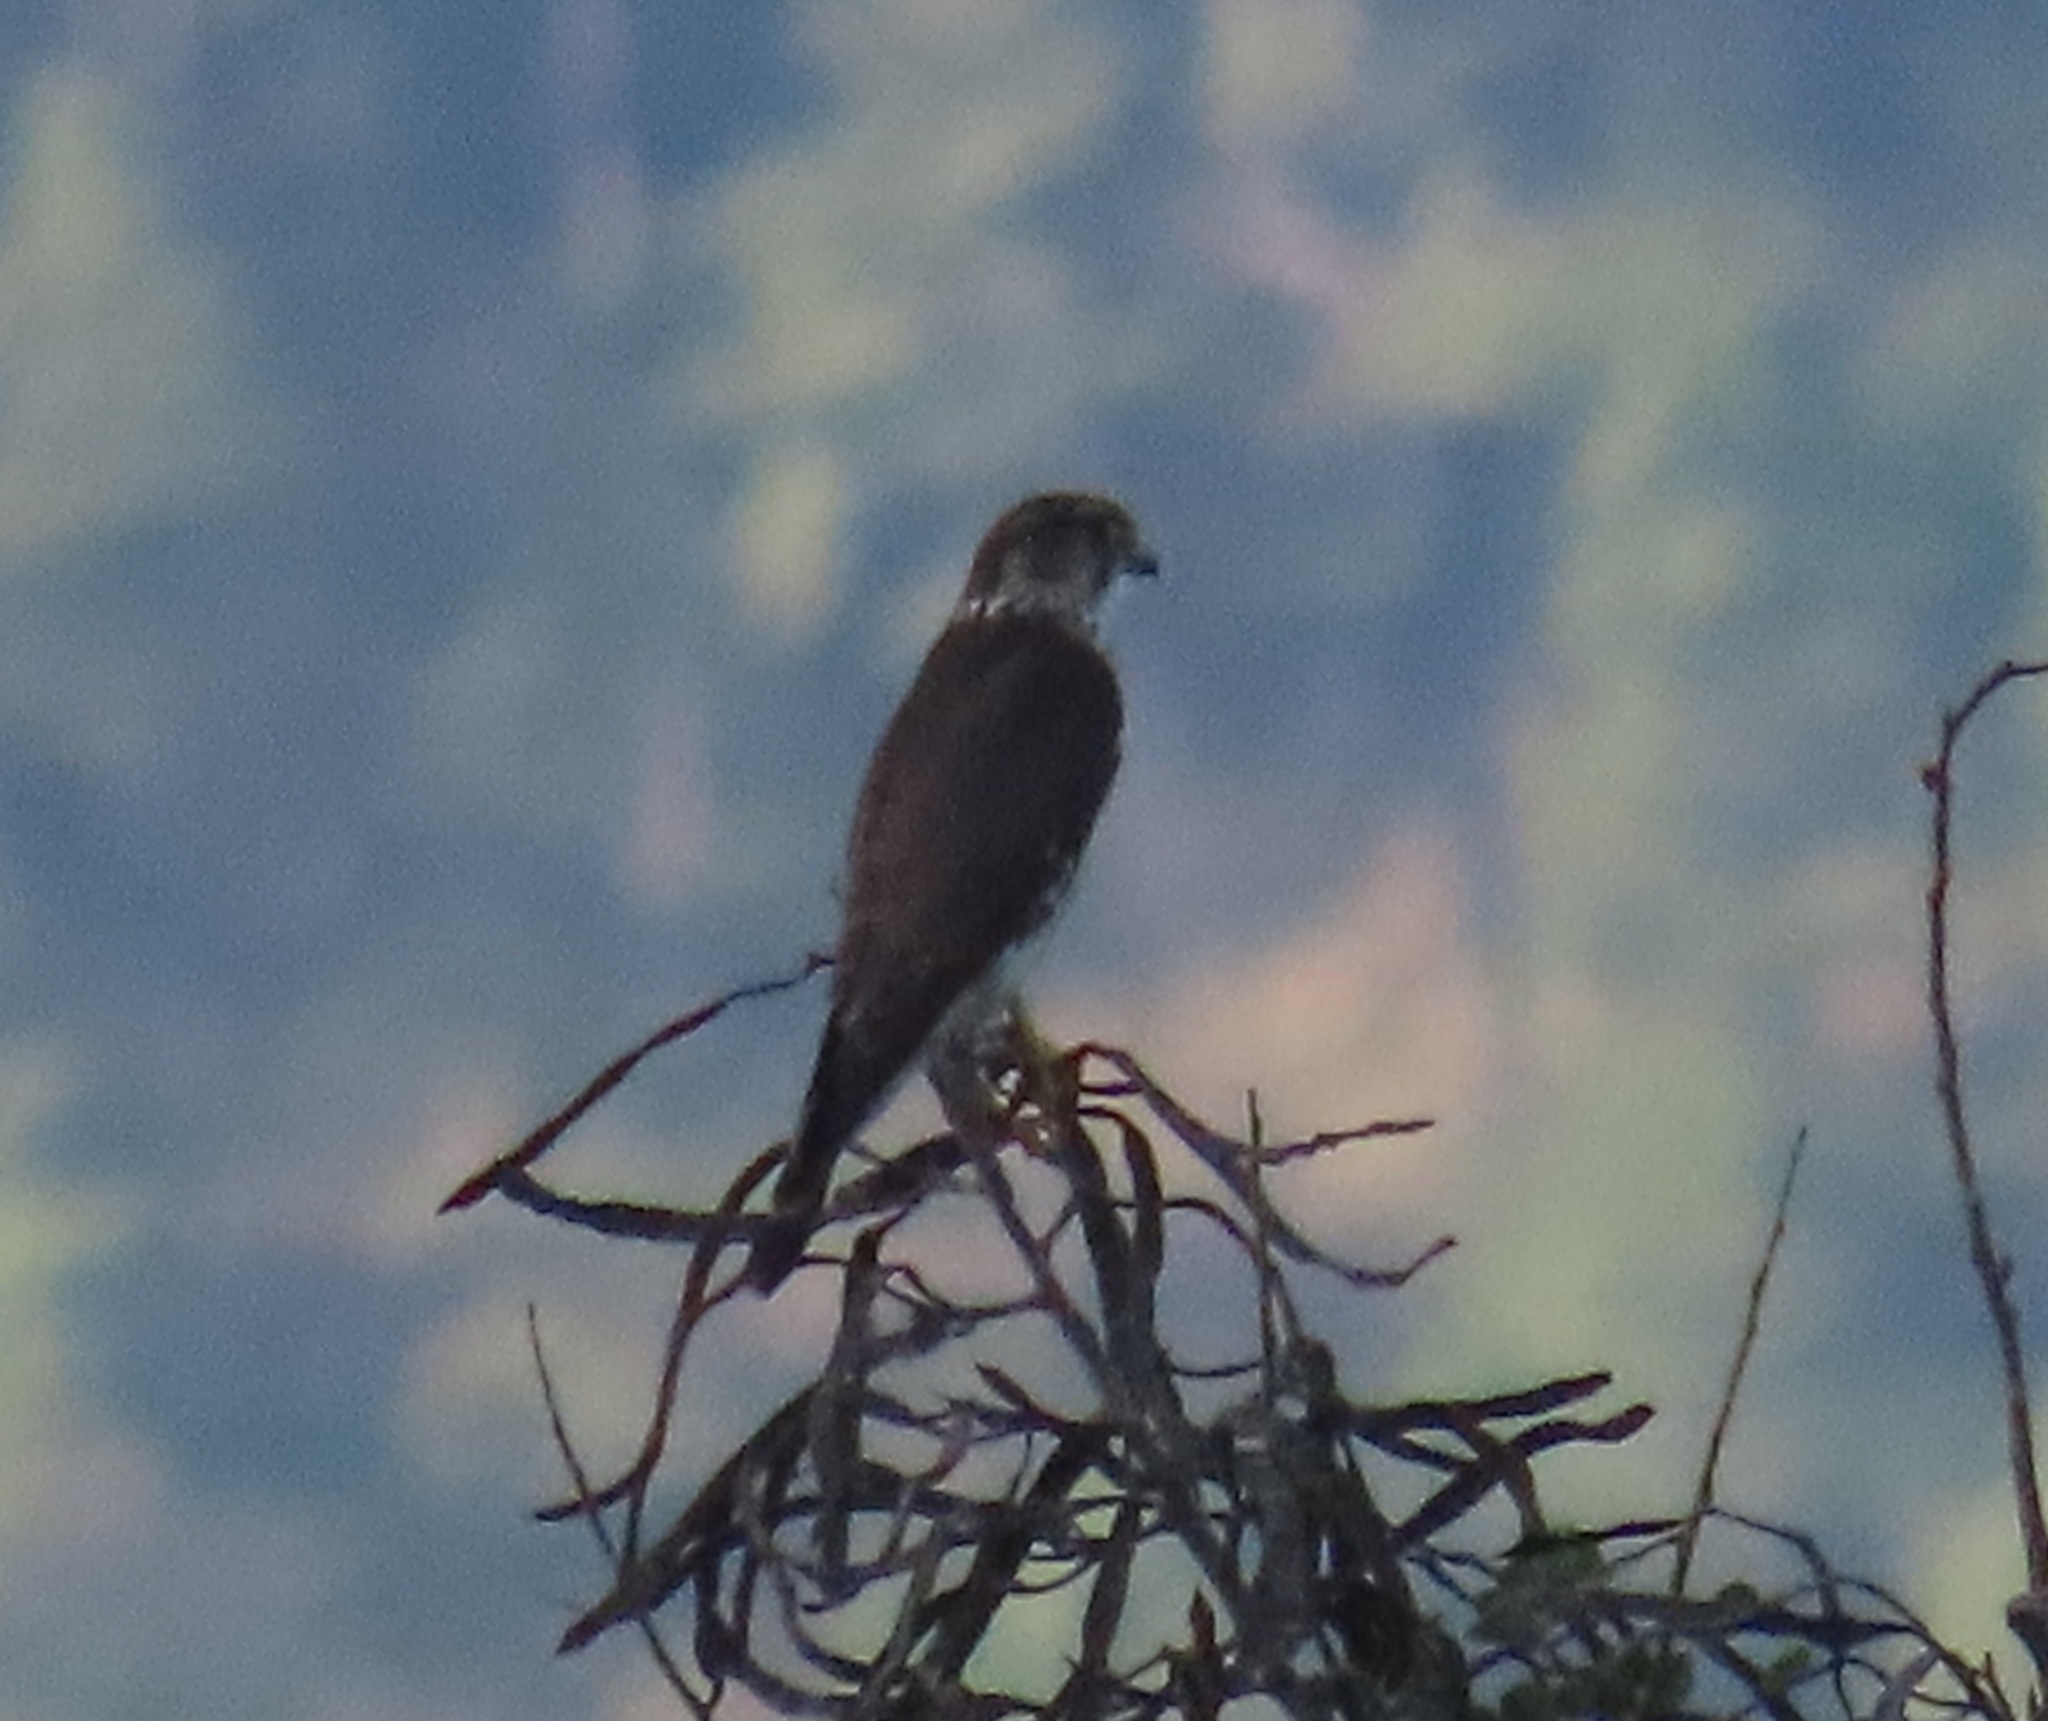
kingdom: Animalia
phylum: Chordata
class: Aves
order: Falconiformes
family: Falconidae
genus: Falco
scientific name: Falco columbarius
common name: Merlin
